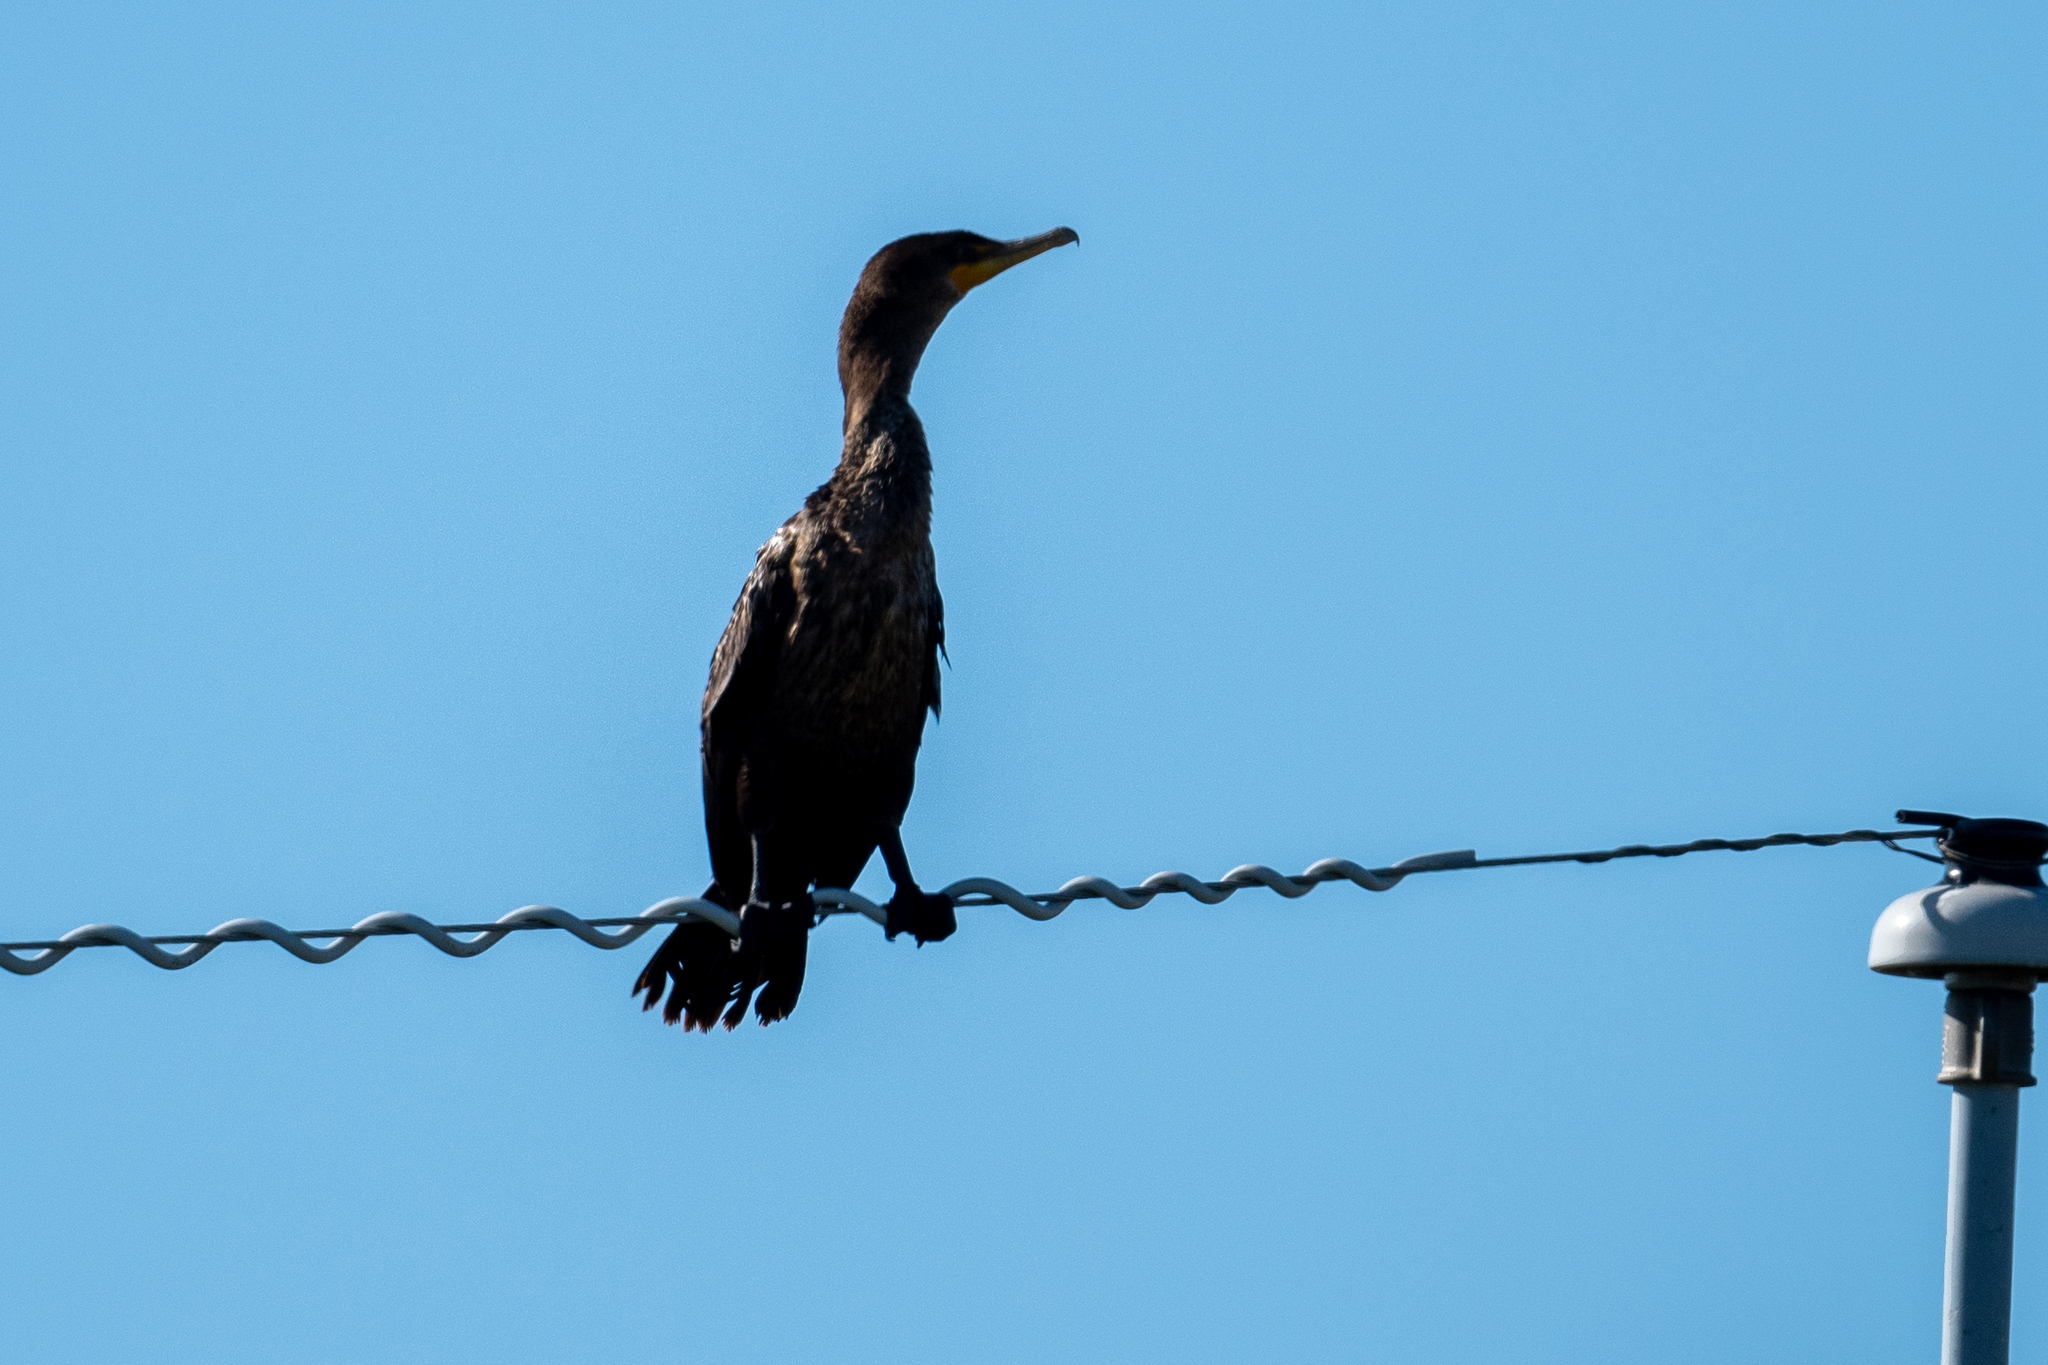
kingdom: Animalia
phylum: Chordata
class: Aves
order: Suliformes
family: Phalacrocoracidae
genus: Phalacrocorax
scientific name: Phalacrocorax auritus
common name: Double-crested cormorant
